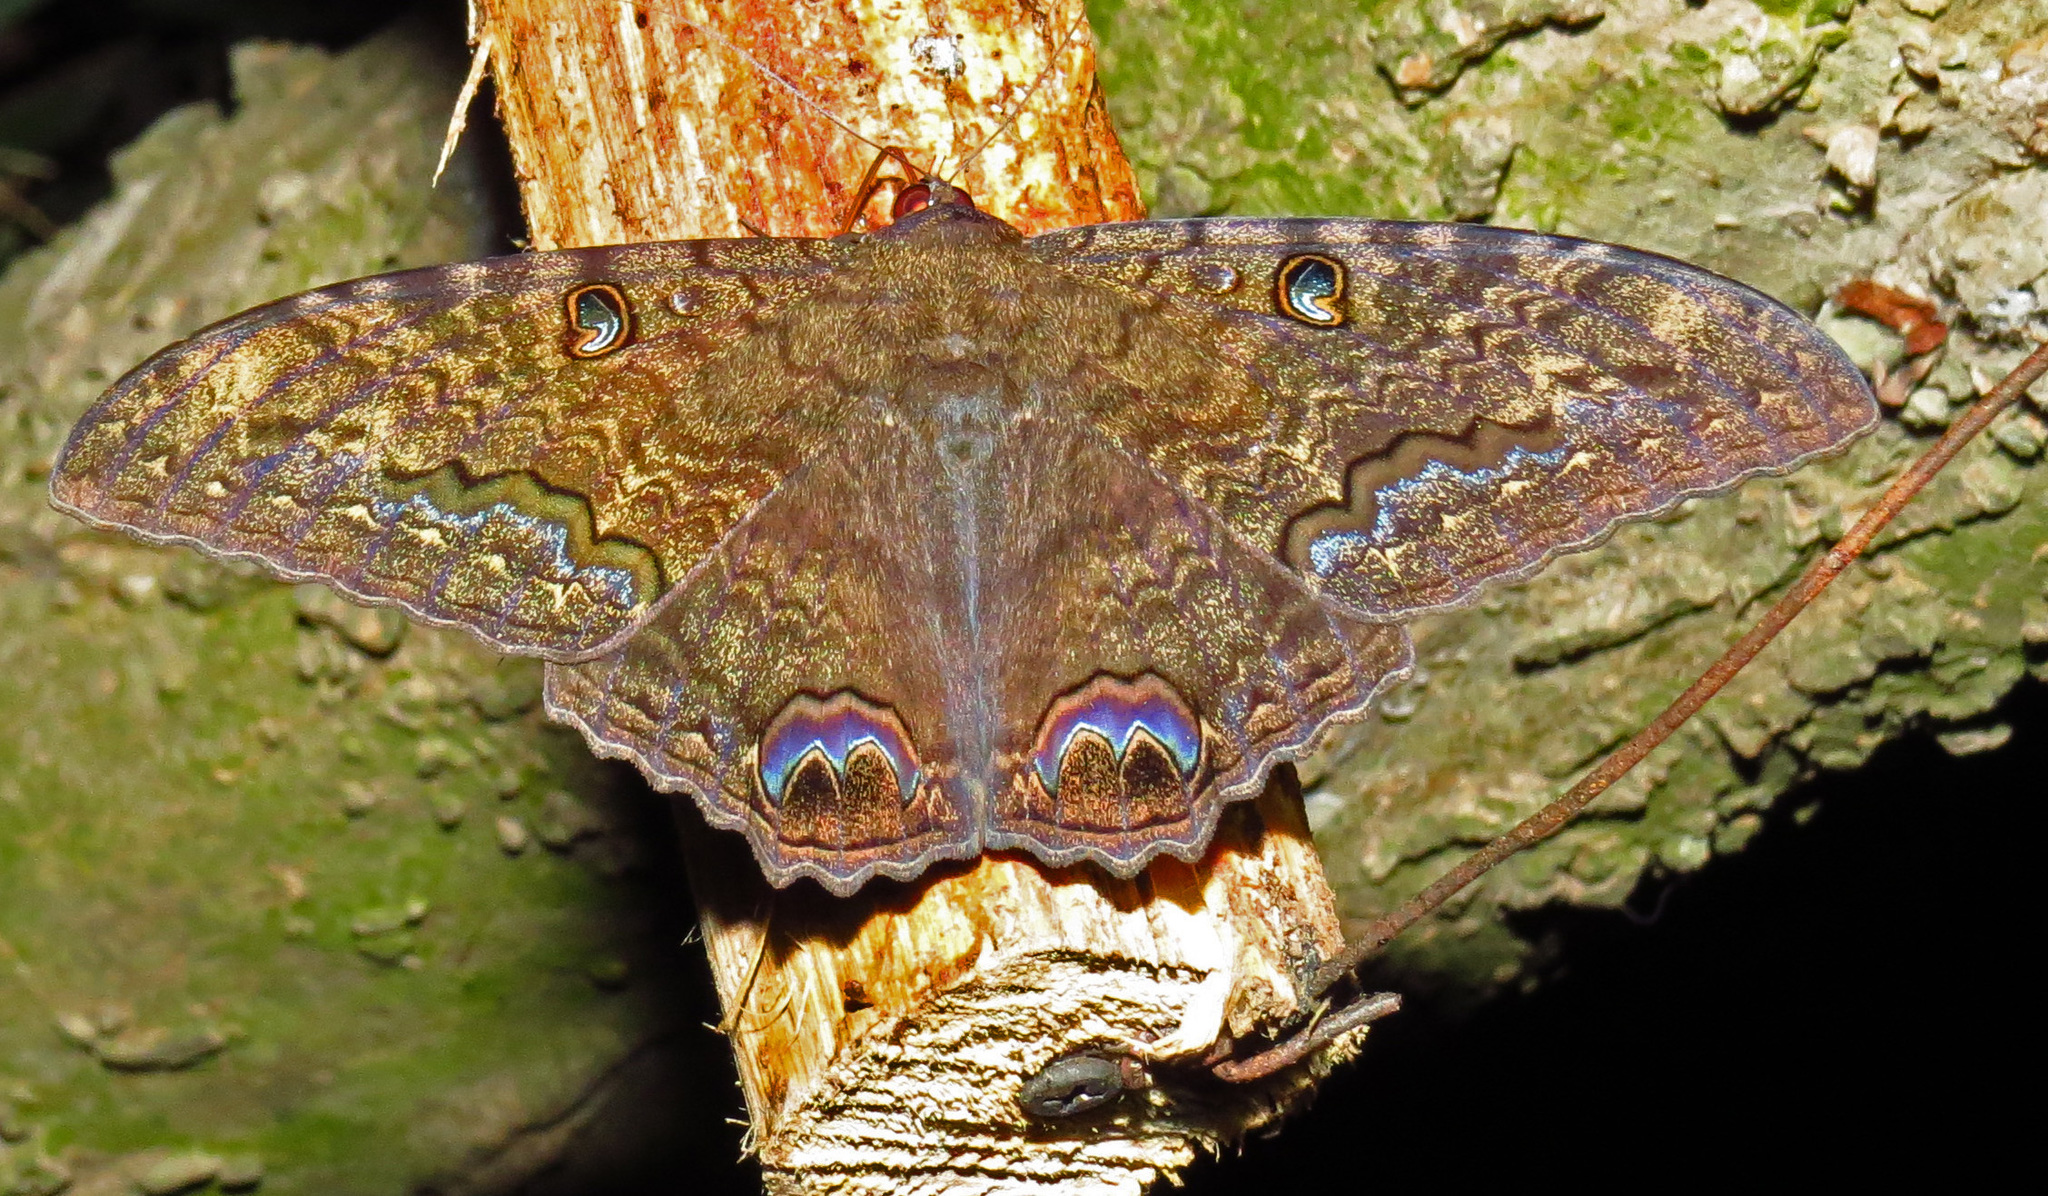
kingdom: Animalia
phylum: Arthropoda
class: Insecta
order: Lepidoptera
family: Erebidae
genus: Ascalapha
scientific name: Ascalapha odorata
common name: Black witch
